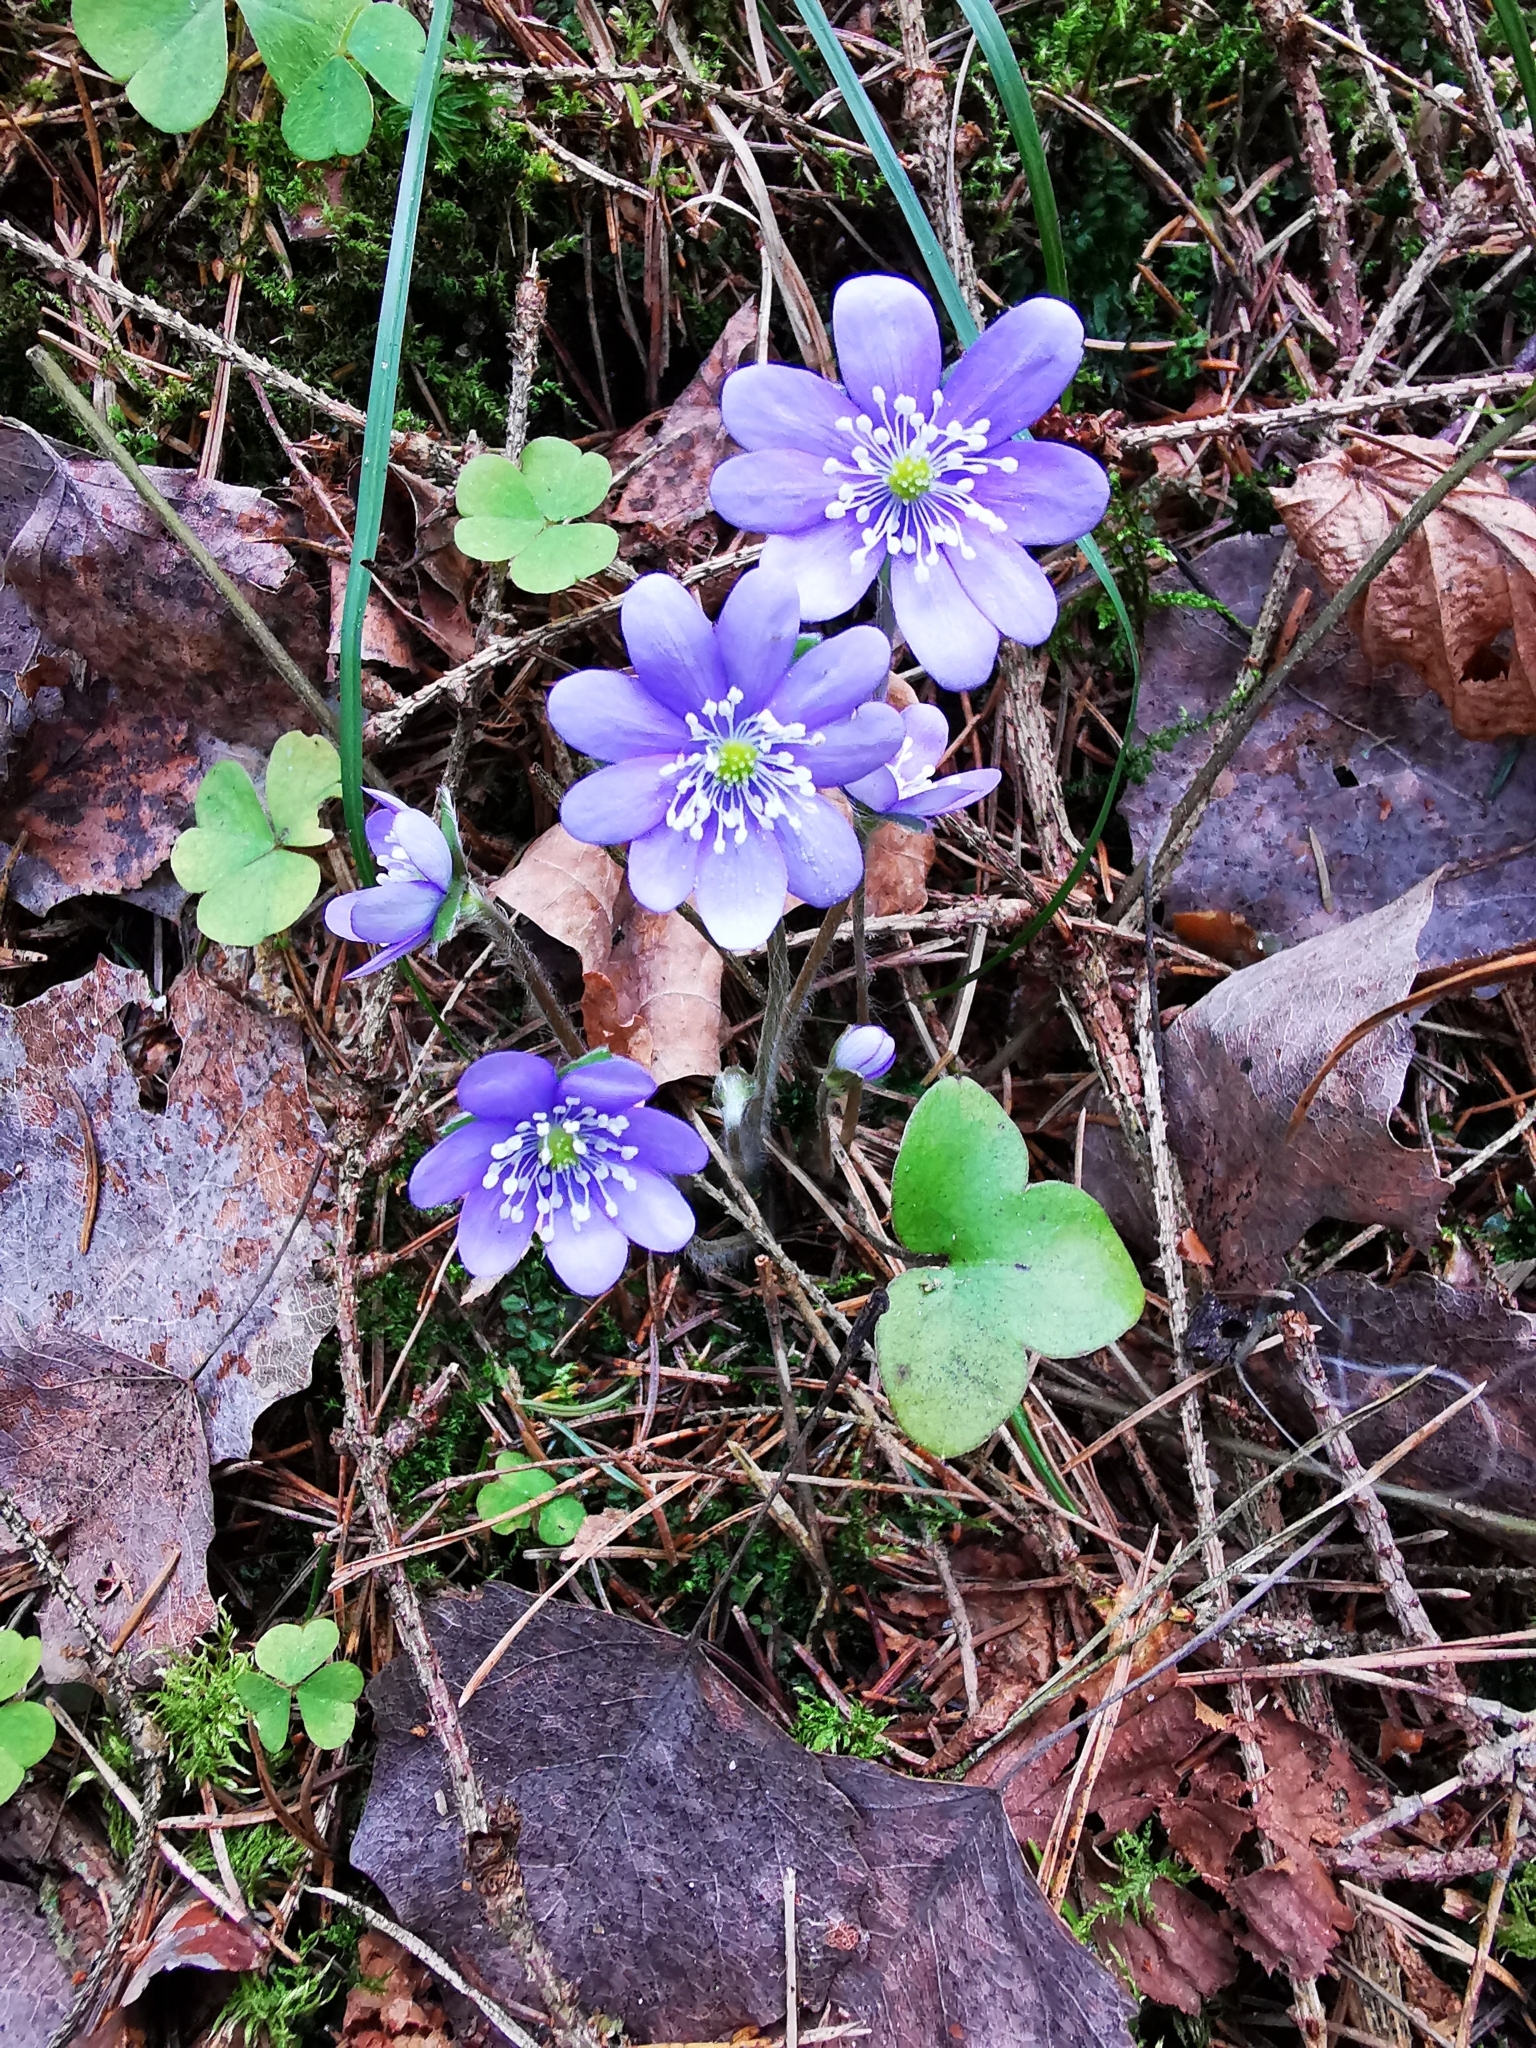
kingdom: Plantae
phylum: Tracheophyta
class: Magnoliopsida
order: Ranunculales
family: Ranunculaceae
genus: Hepatica
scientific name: Hepatica nobilis
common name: Liverleaf
